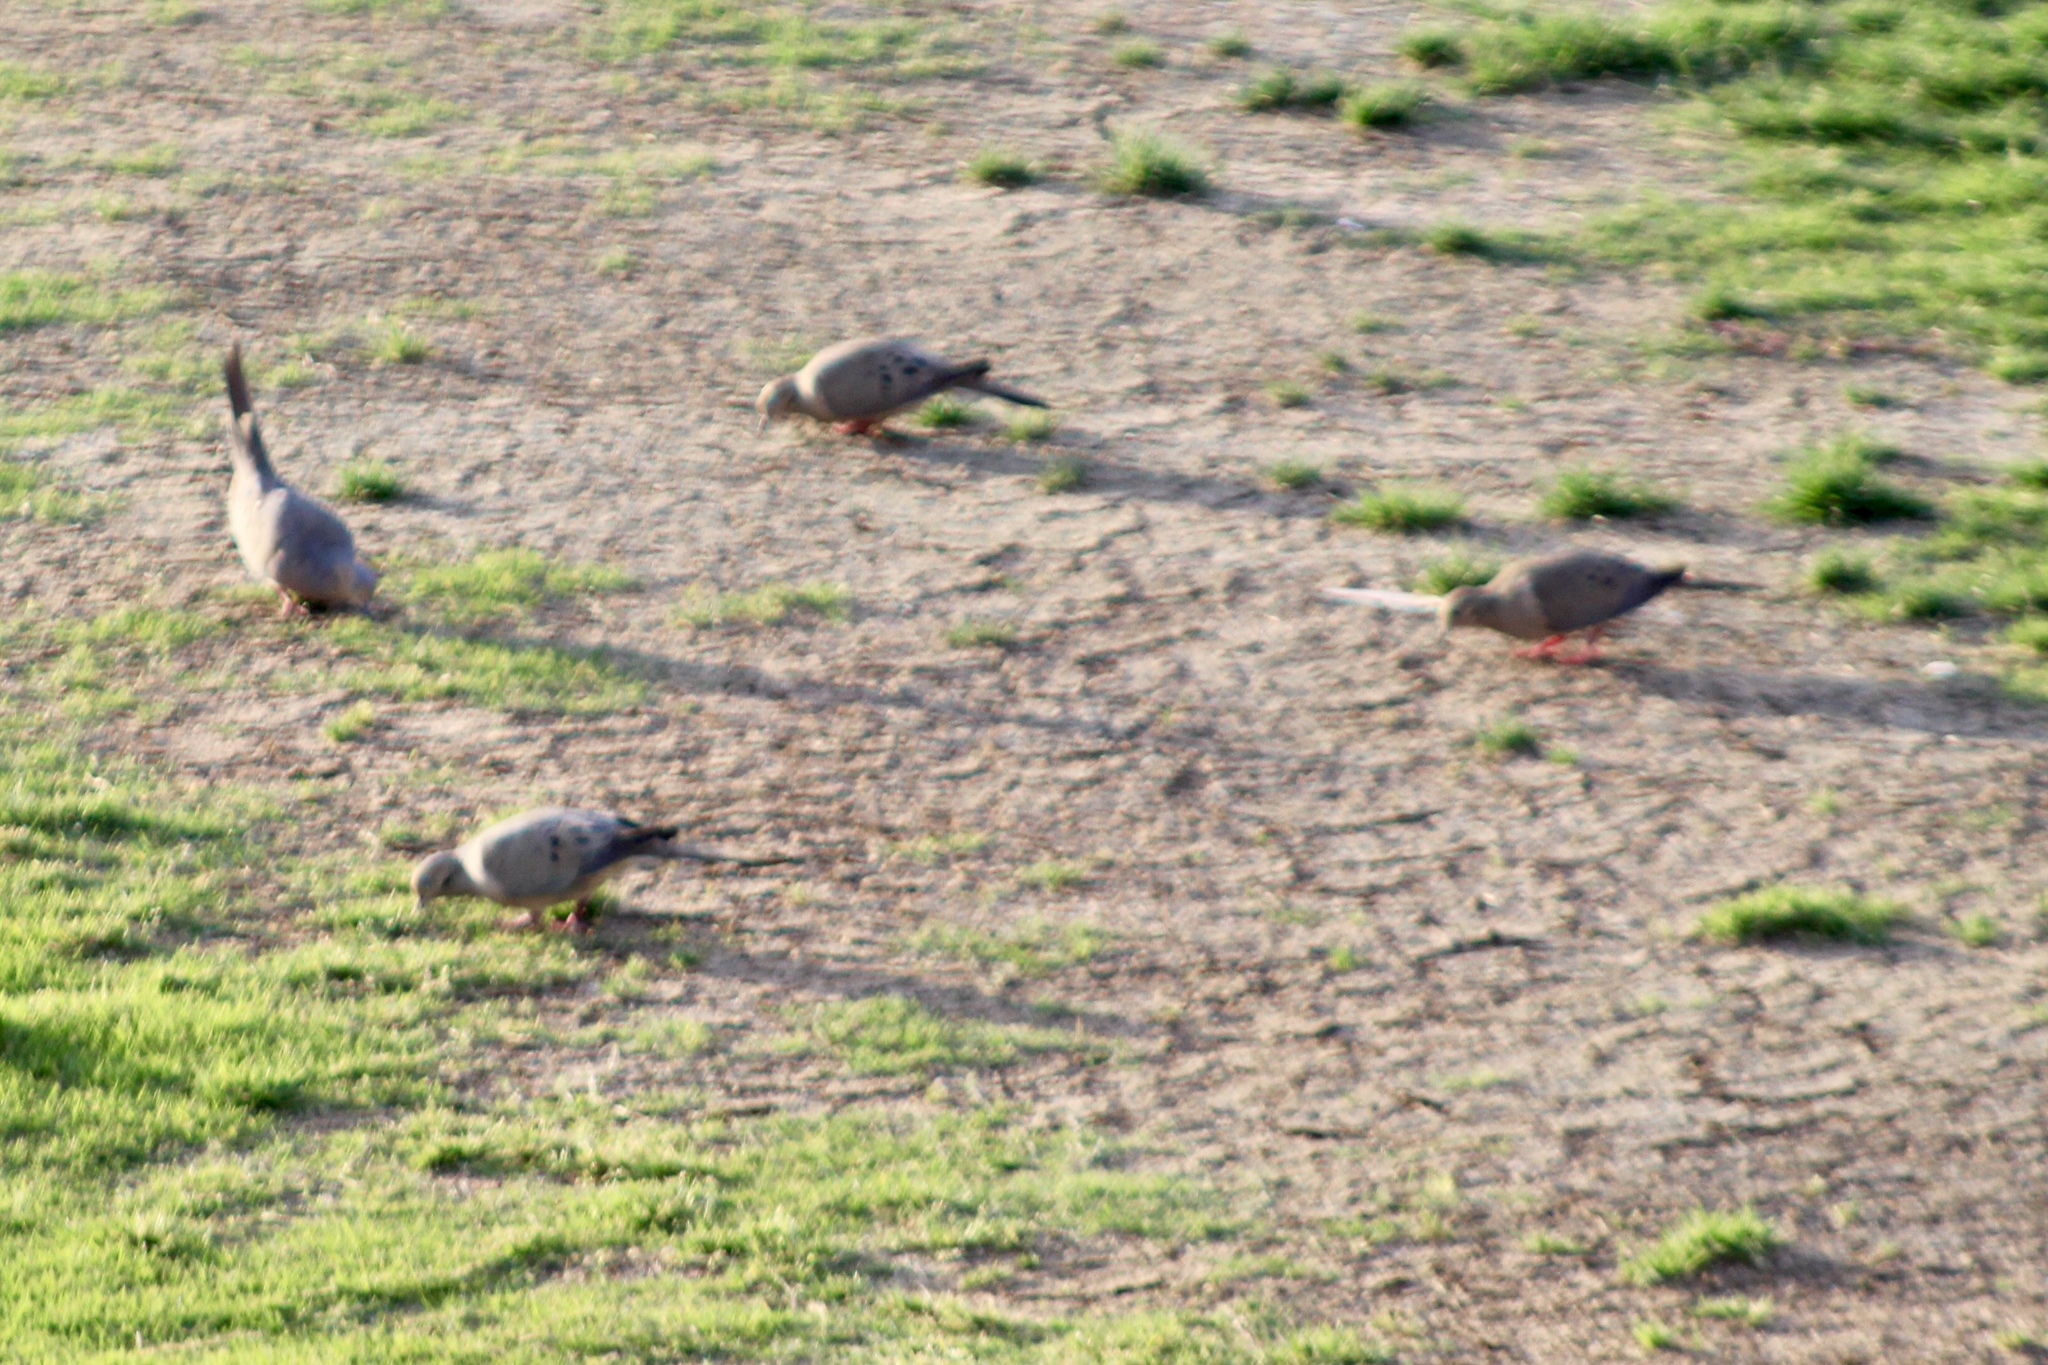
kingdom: Animalia
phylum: Chordata
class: Aves
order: Columbiformes
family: Columbidae
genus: Zenaida
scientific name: Zenaida macroura
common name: Mourning dove
